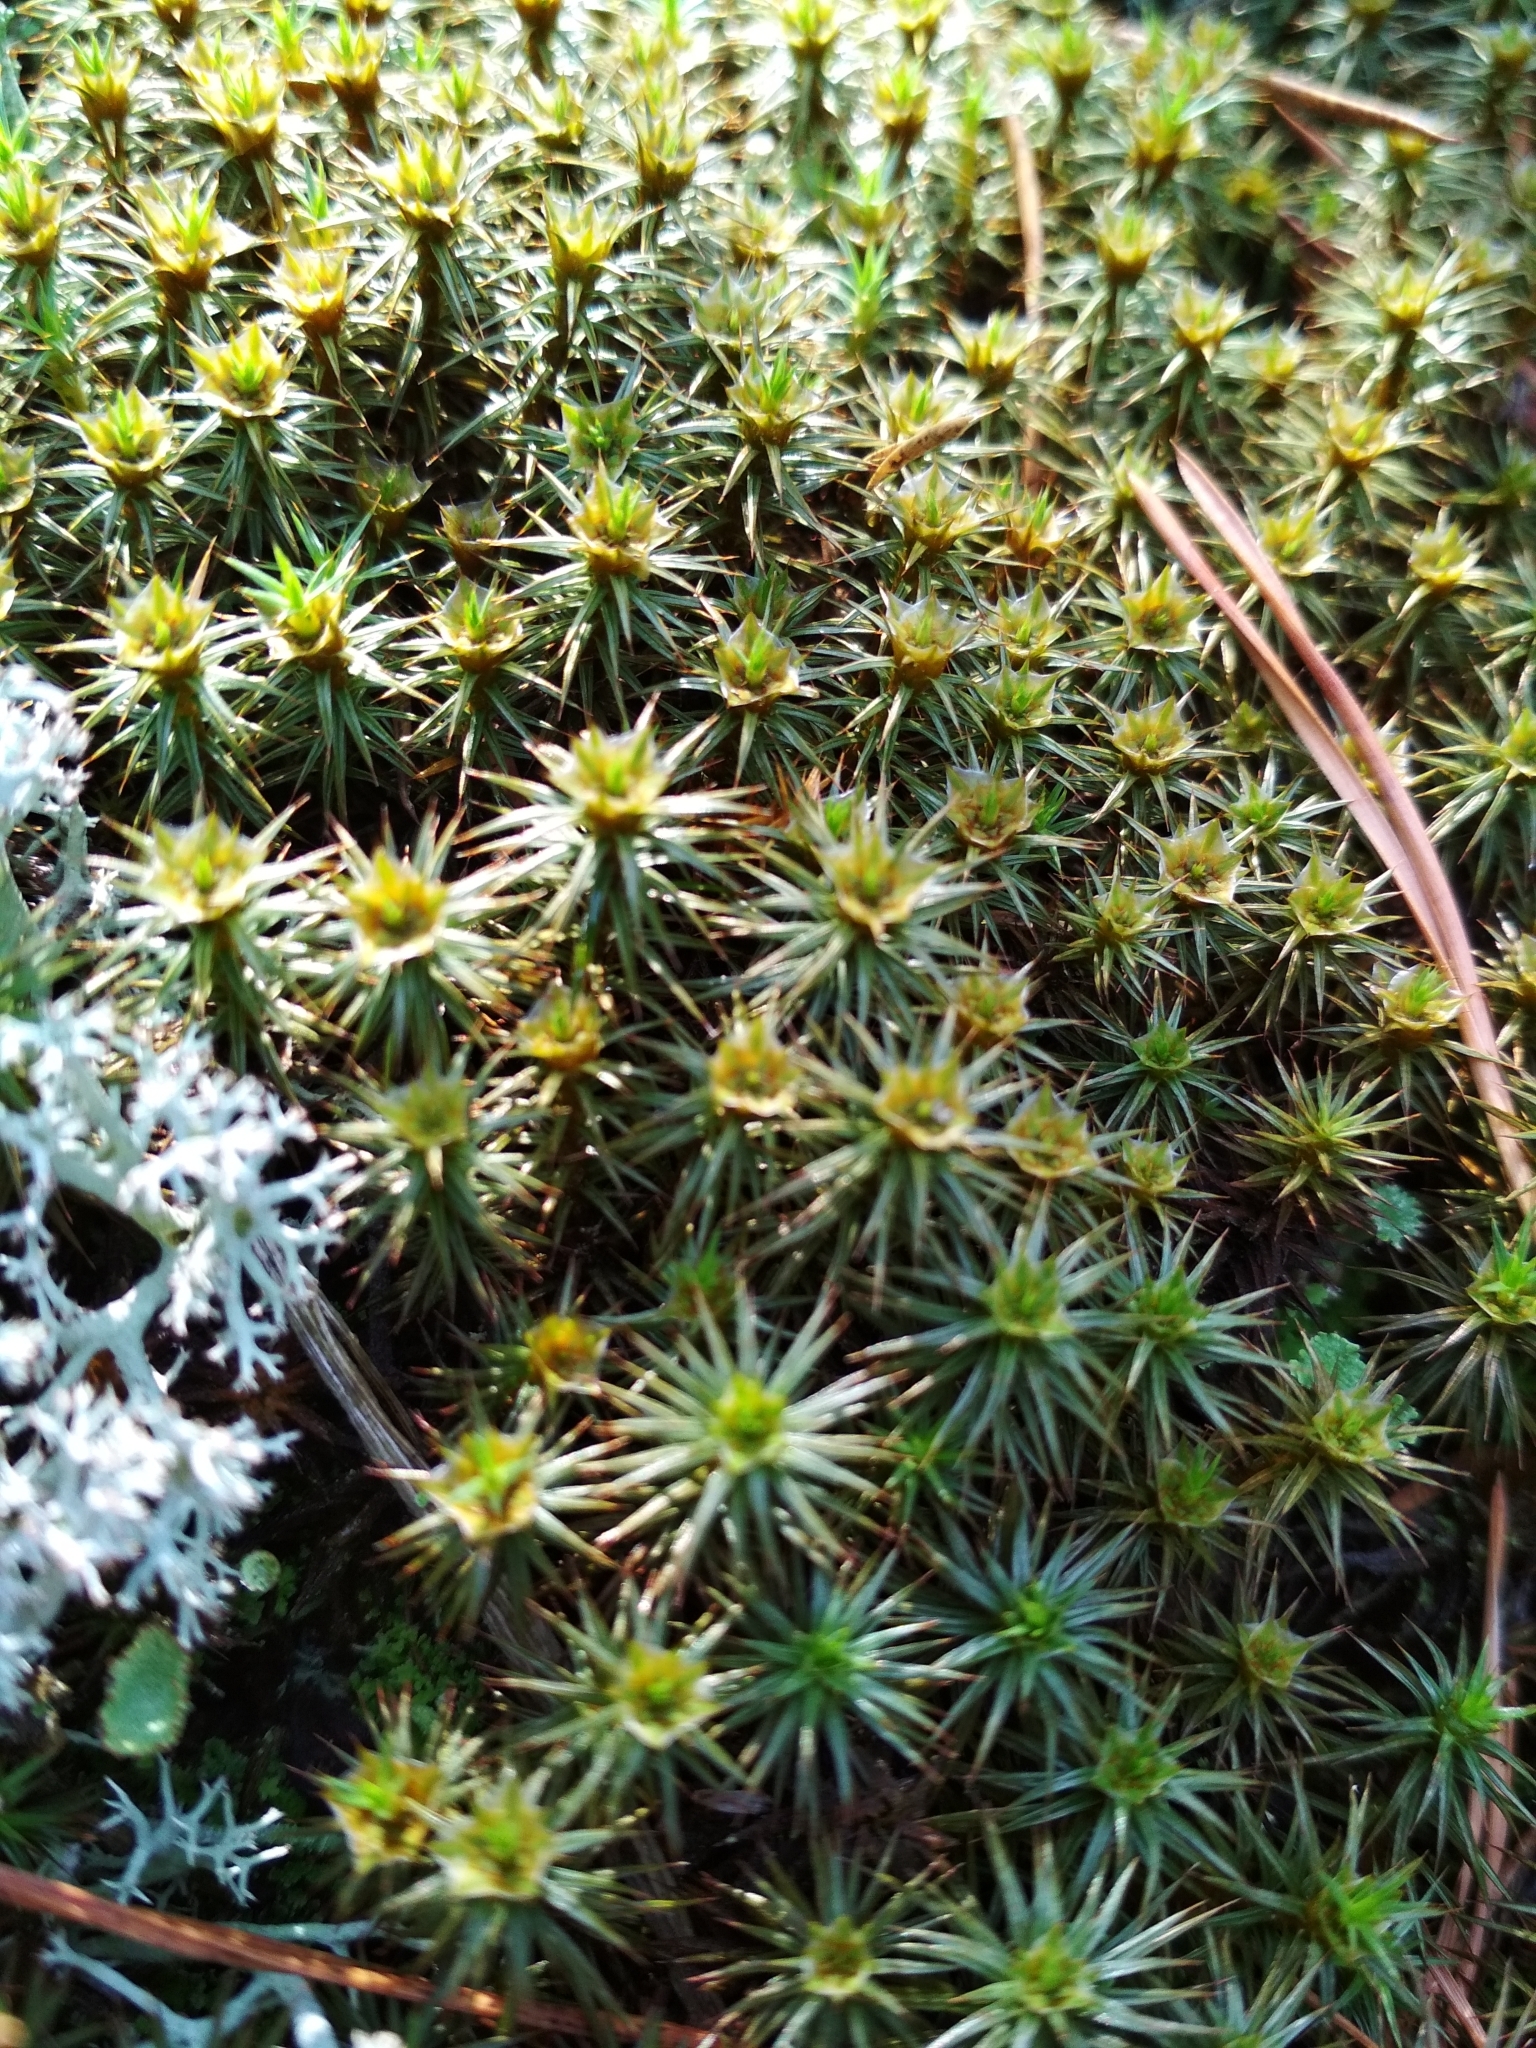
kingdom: Plantae
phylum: Bryophyta
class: Polytrichopsida
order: Polytrichales
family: Polytrichaceae
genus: Polytrichum
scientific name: Polytrichum juniperinum
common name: Juniper haircap moss
